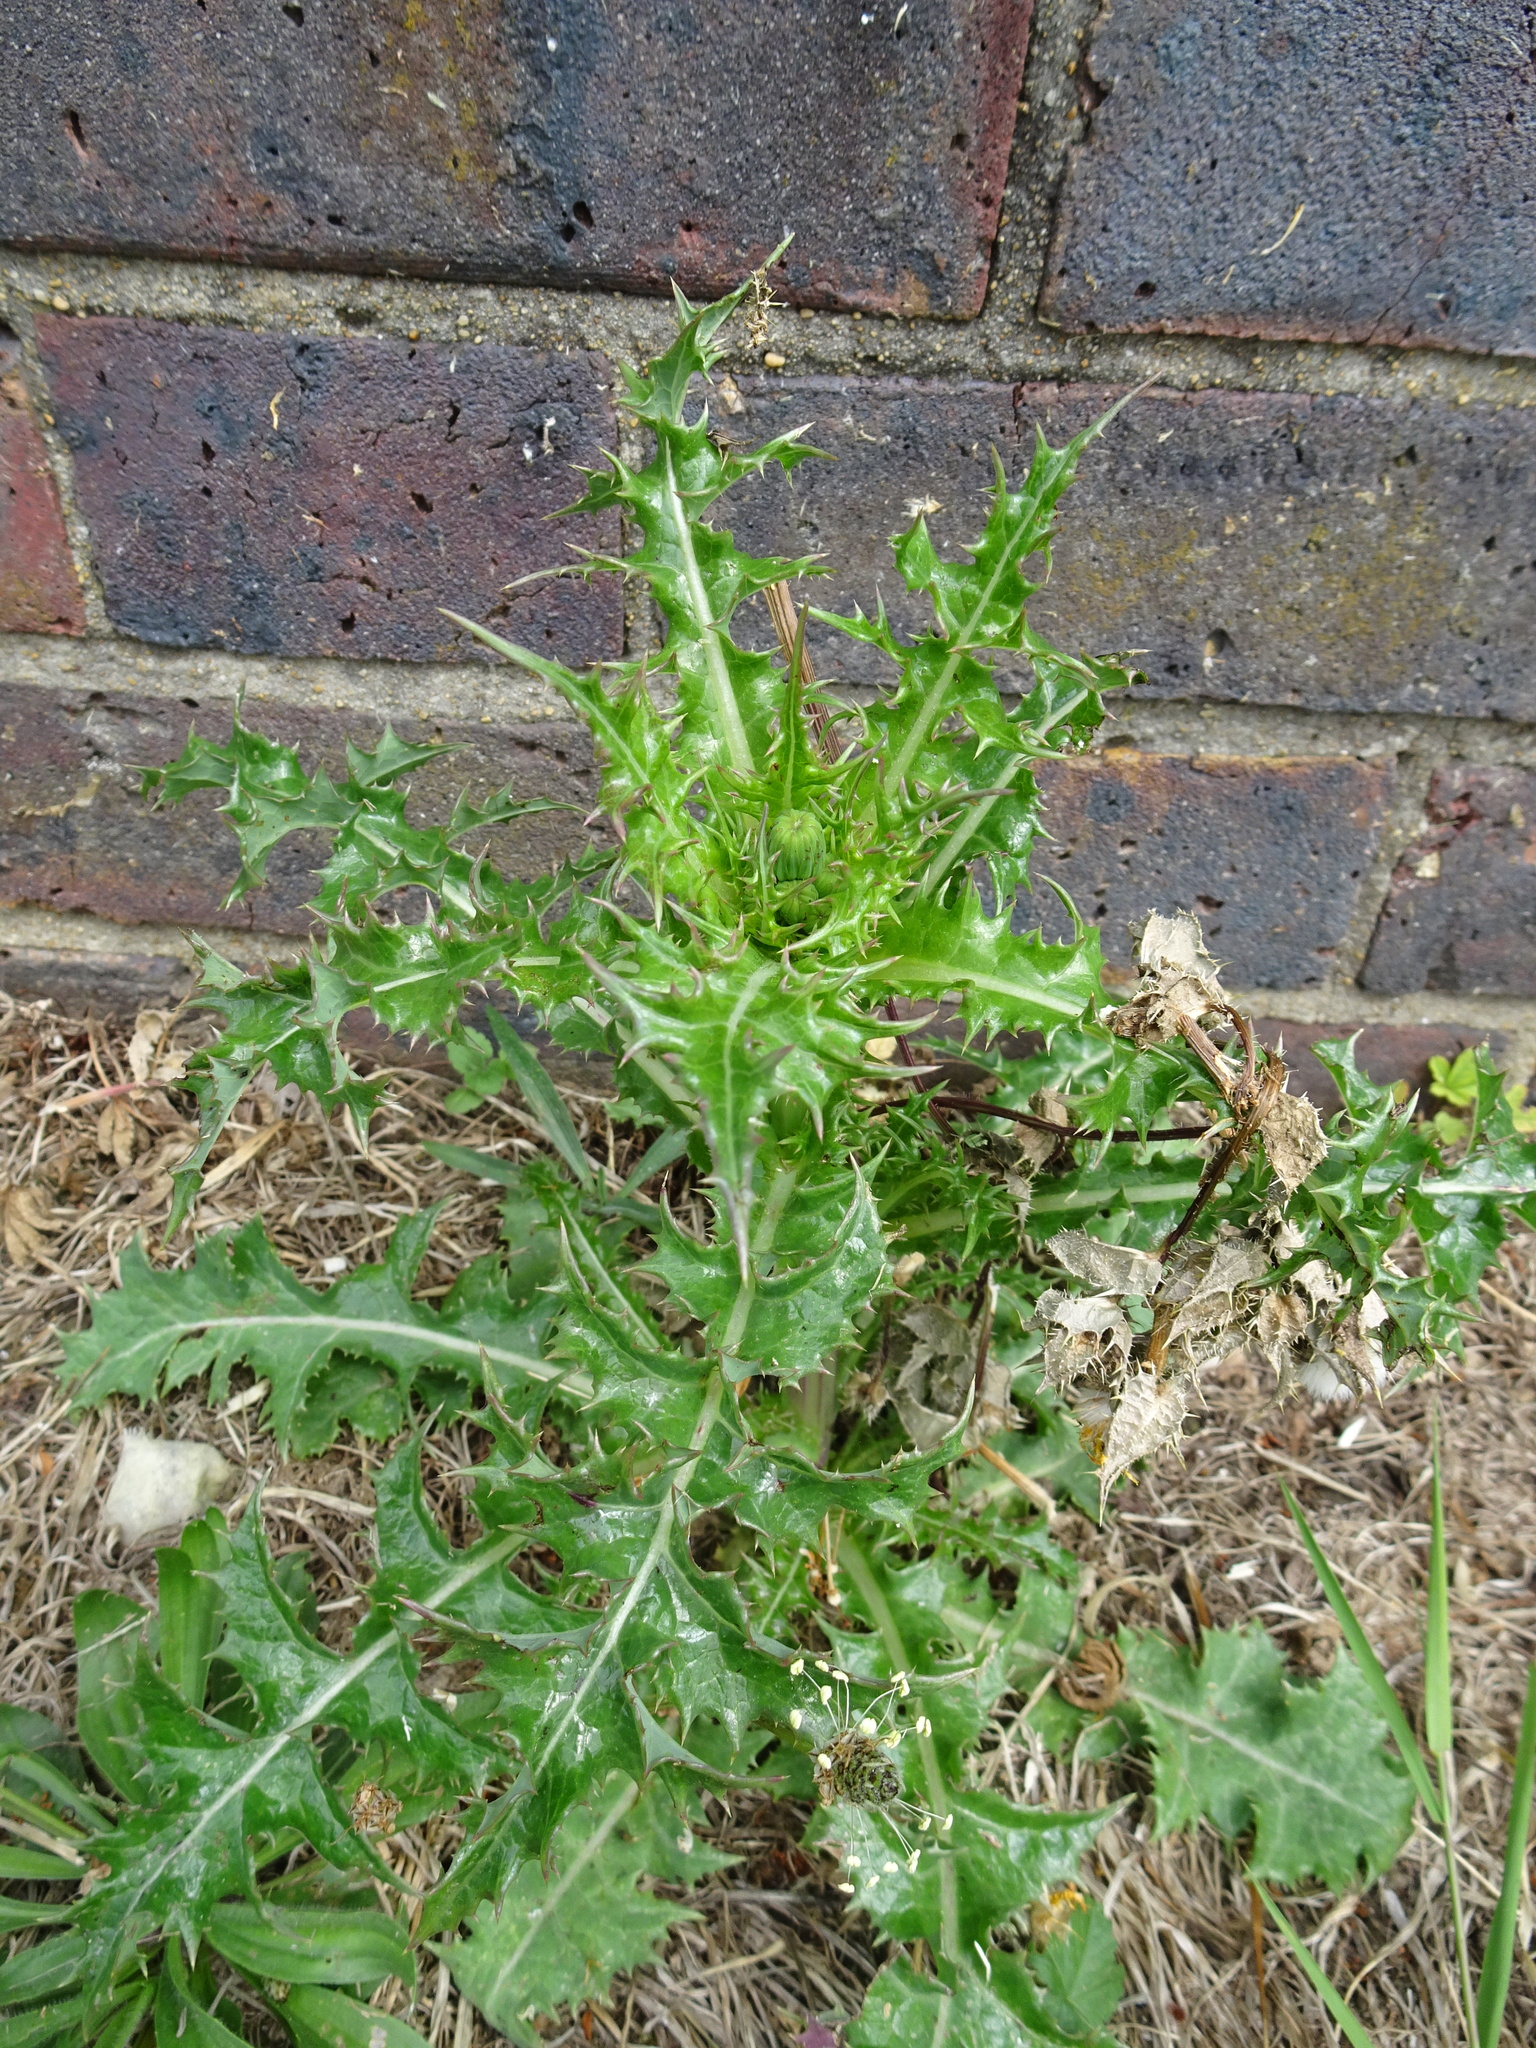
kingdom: Plantae
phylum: Tracheophyta
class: Magnoliopsida
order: Asterales
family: Asteraceae
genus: Sonchus
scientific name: Sonchus asper
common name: Prickly sow-thistle
